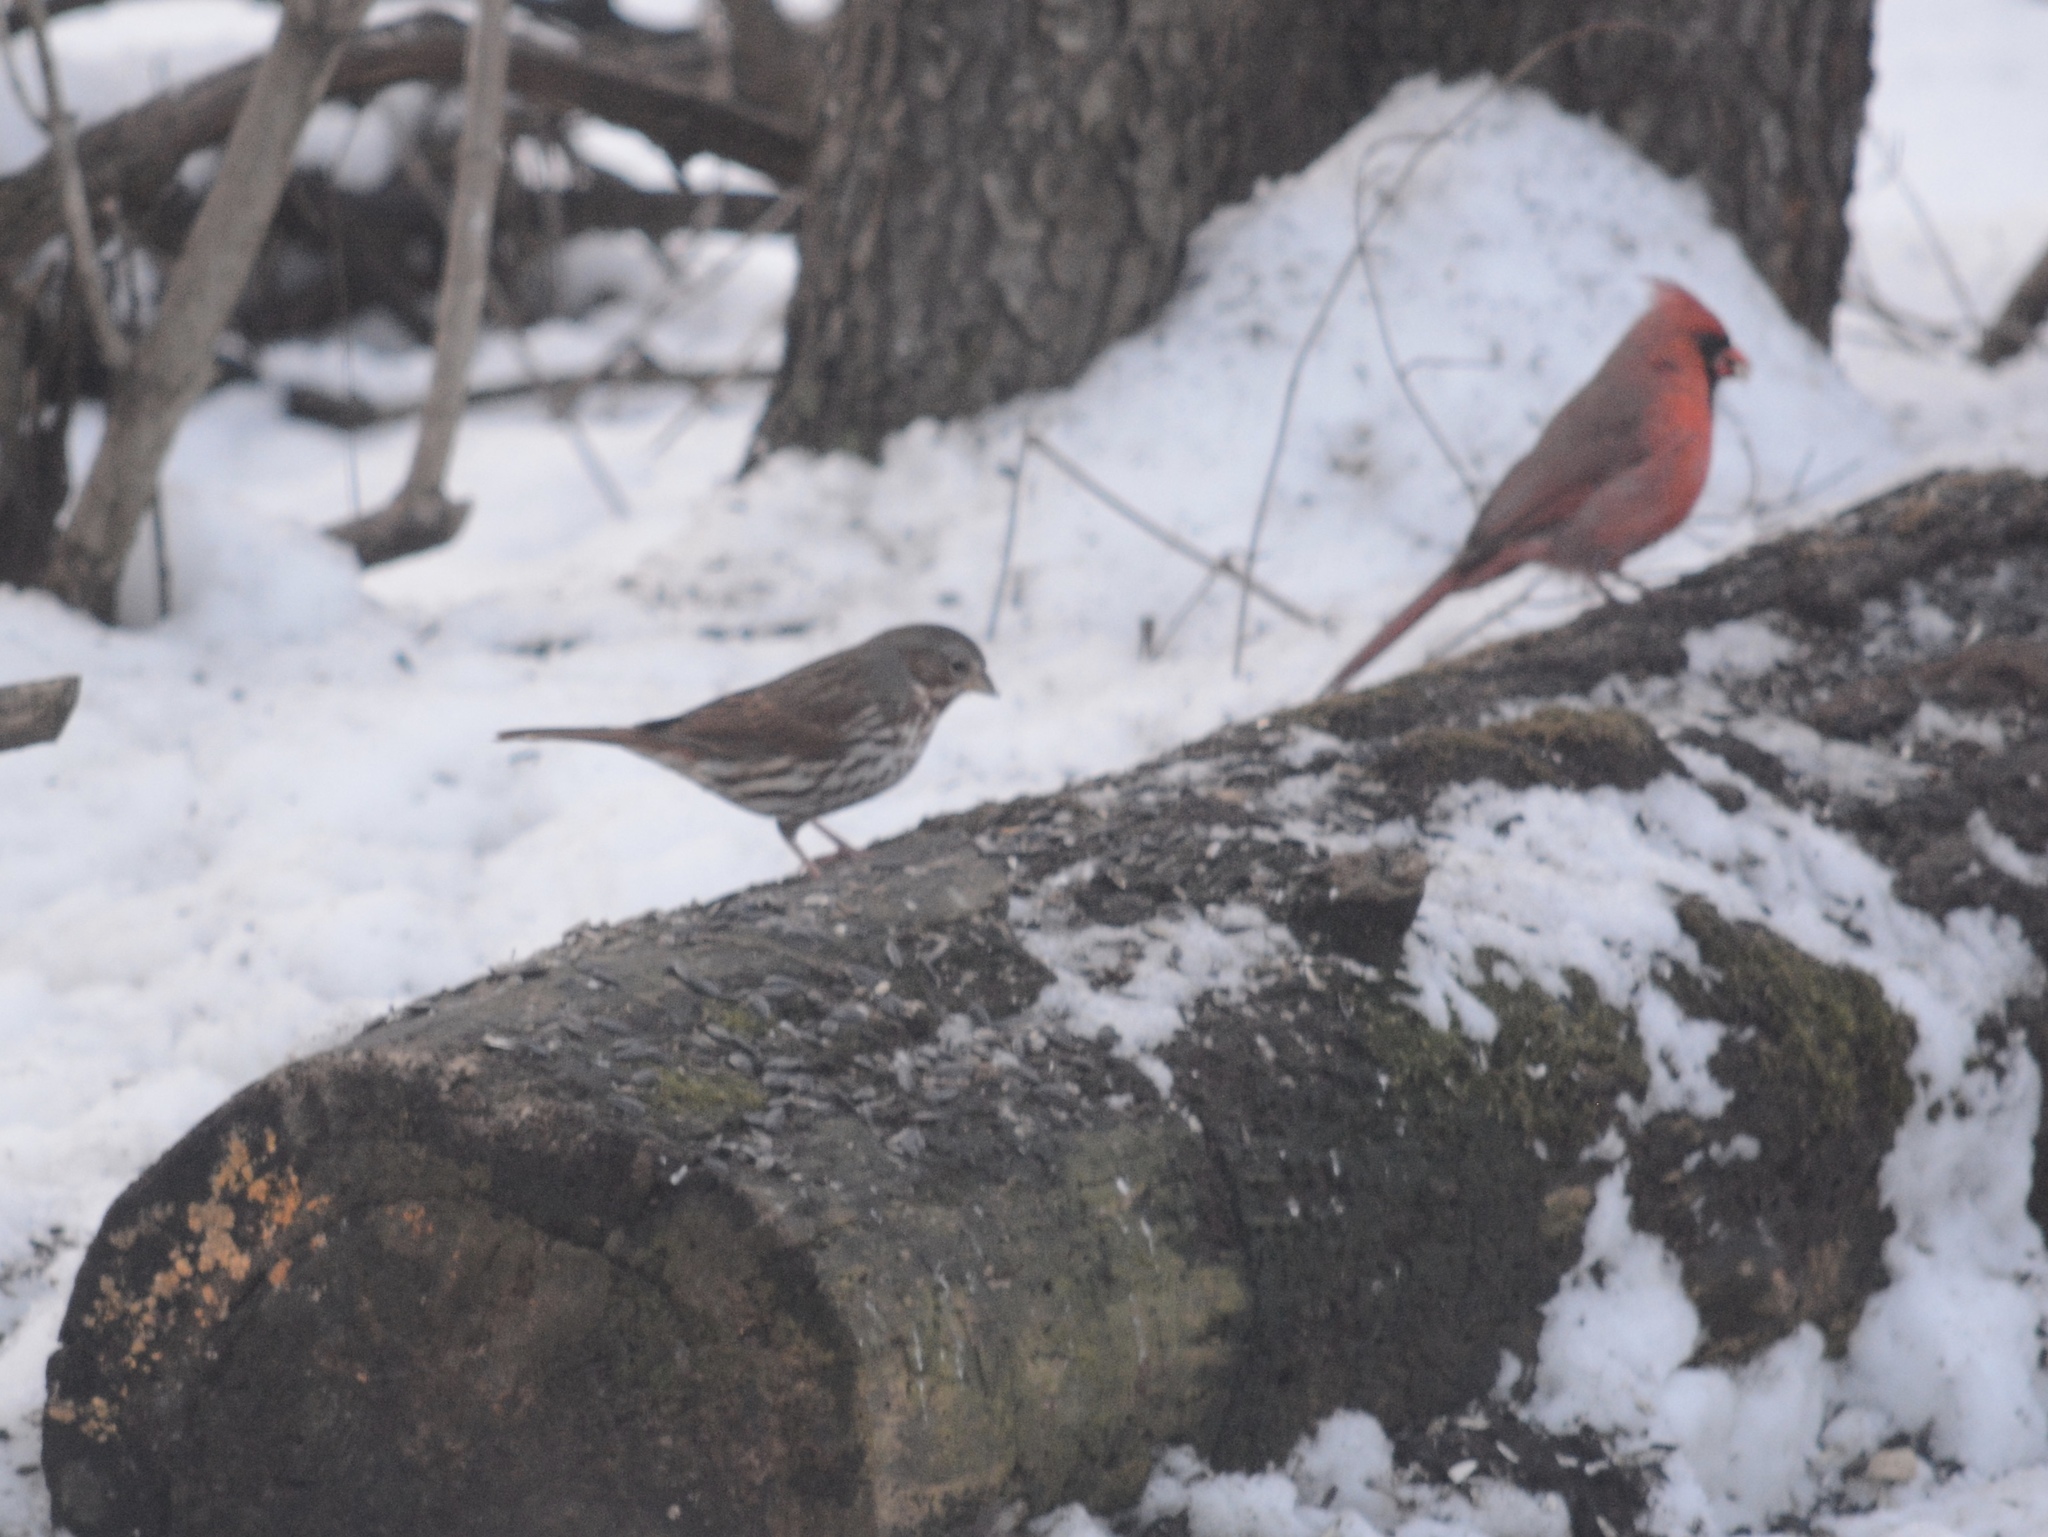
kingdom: Animalia
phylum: Chordata
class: Aves
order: Passeriformes
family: Passerellidae
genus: Passerella
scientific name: Passerella iliaca
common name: Fox sparrow
